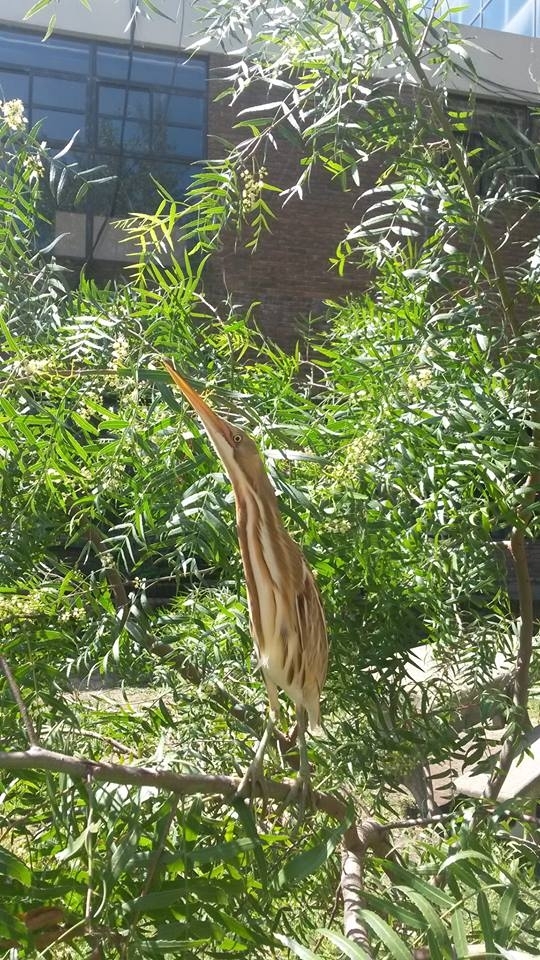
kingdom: Animalia
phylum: Chordata
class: Aves
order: Pelecaniformes
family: Ardeidae
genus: Ixobrychus
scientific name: Ixobrychus involucris
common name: Stripe-backed bittern
